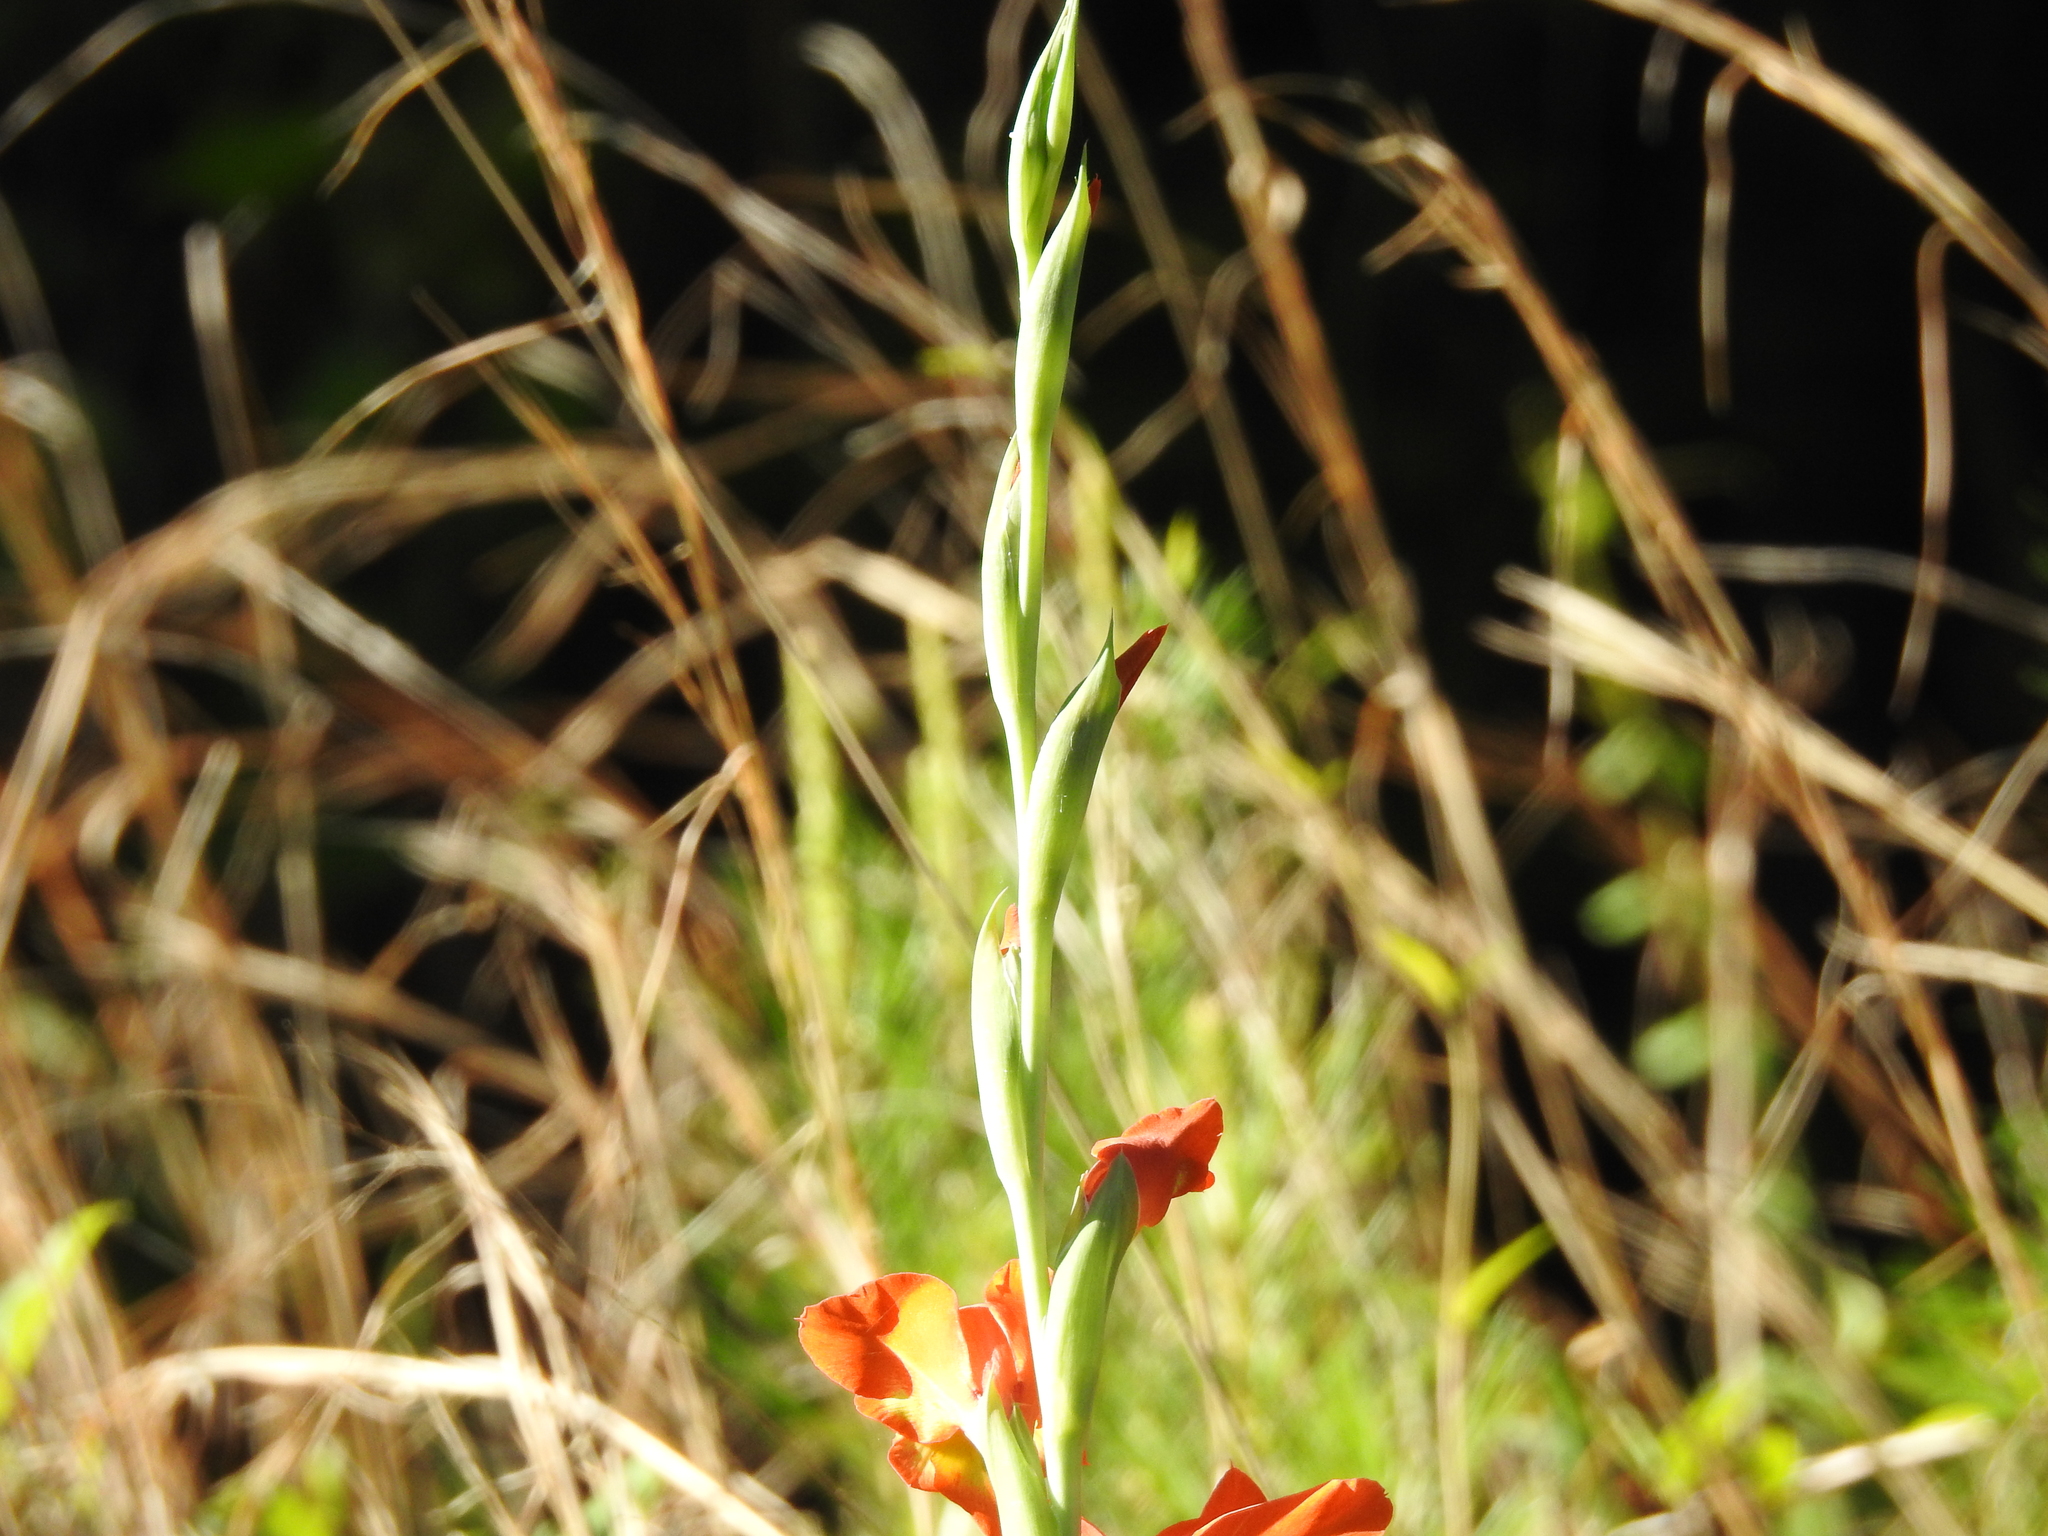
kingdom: Plantae
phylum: Tracheophyta
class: Liliopsida
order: Asparagales
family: Iridaceae
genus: Gladiolus
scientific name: Gladiolus dalenii
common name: Cornflag
